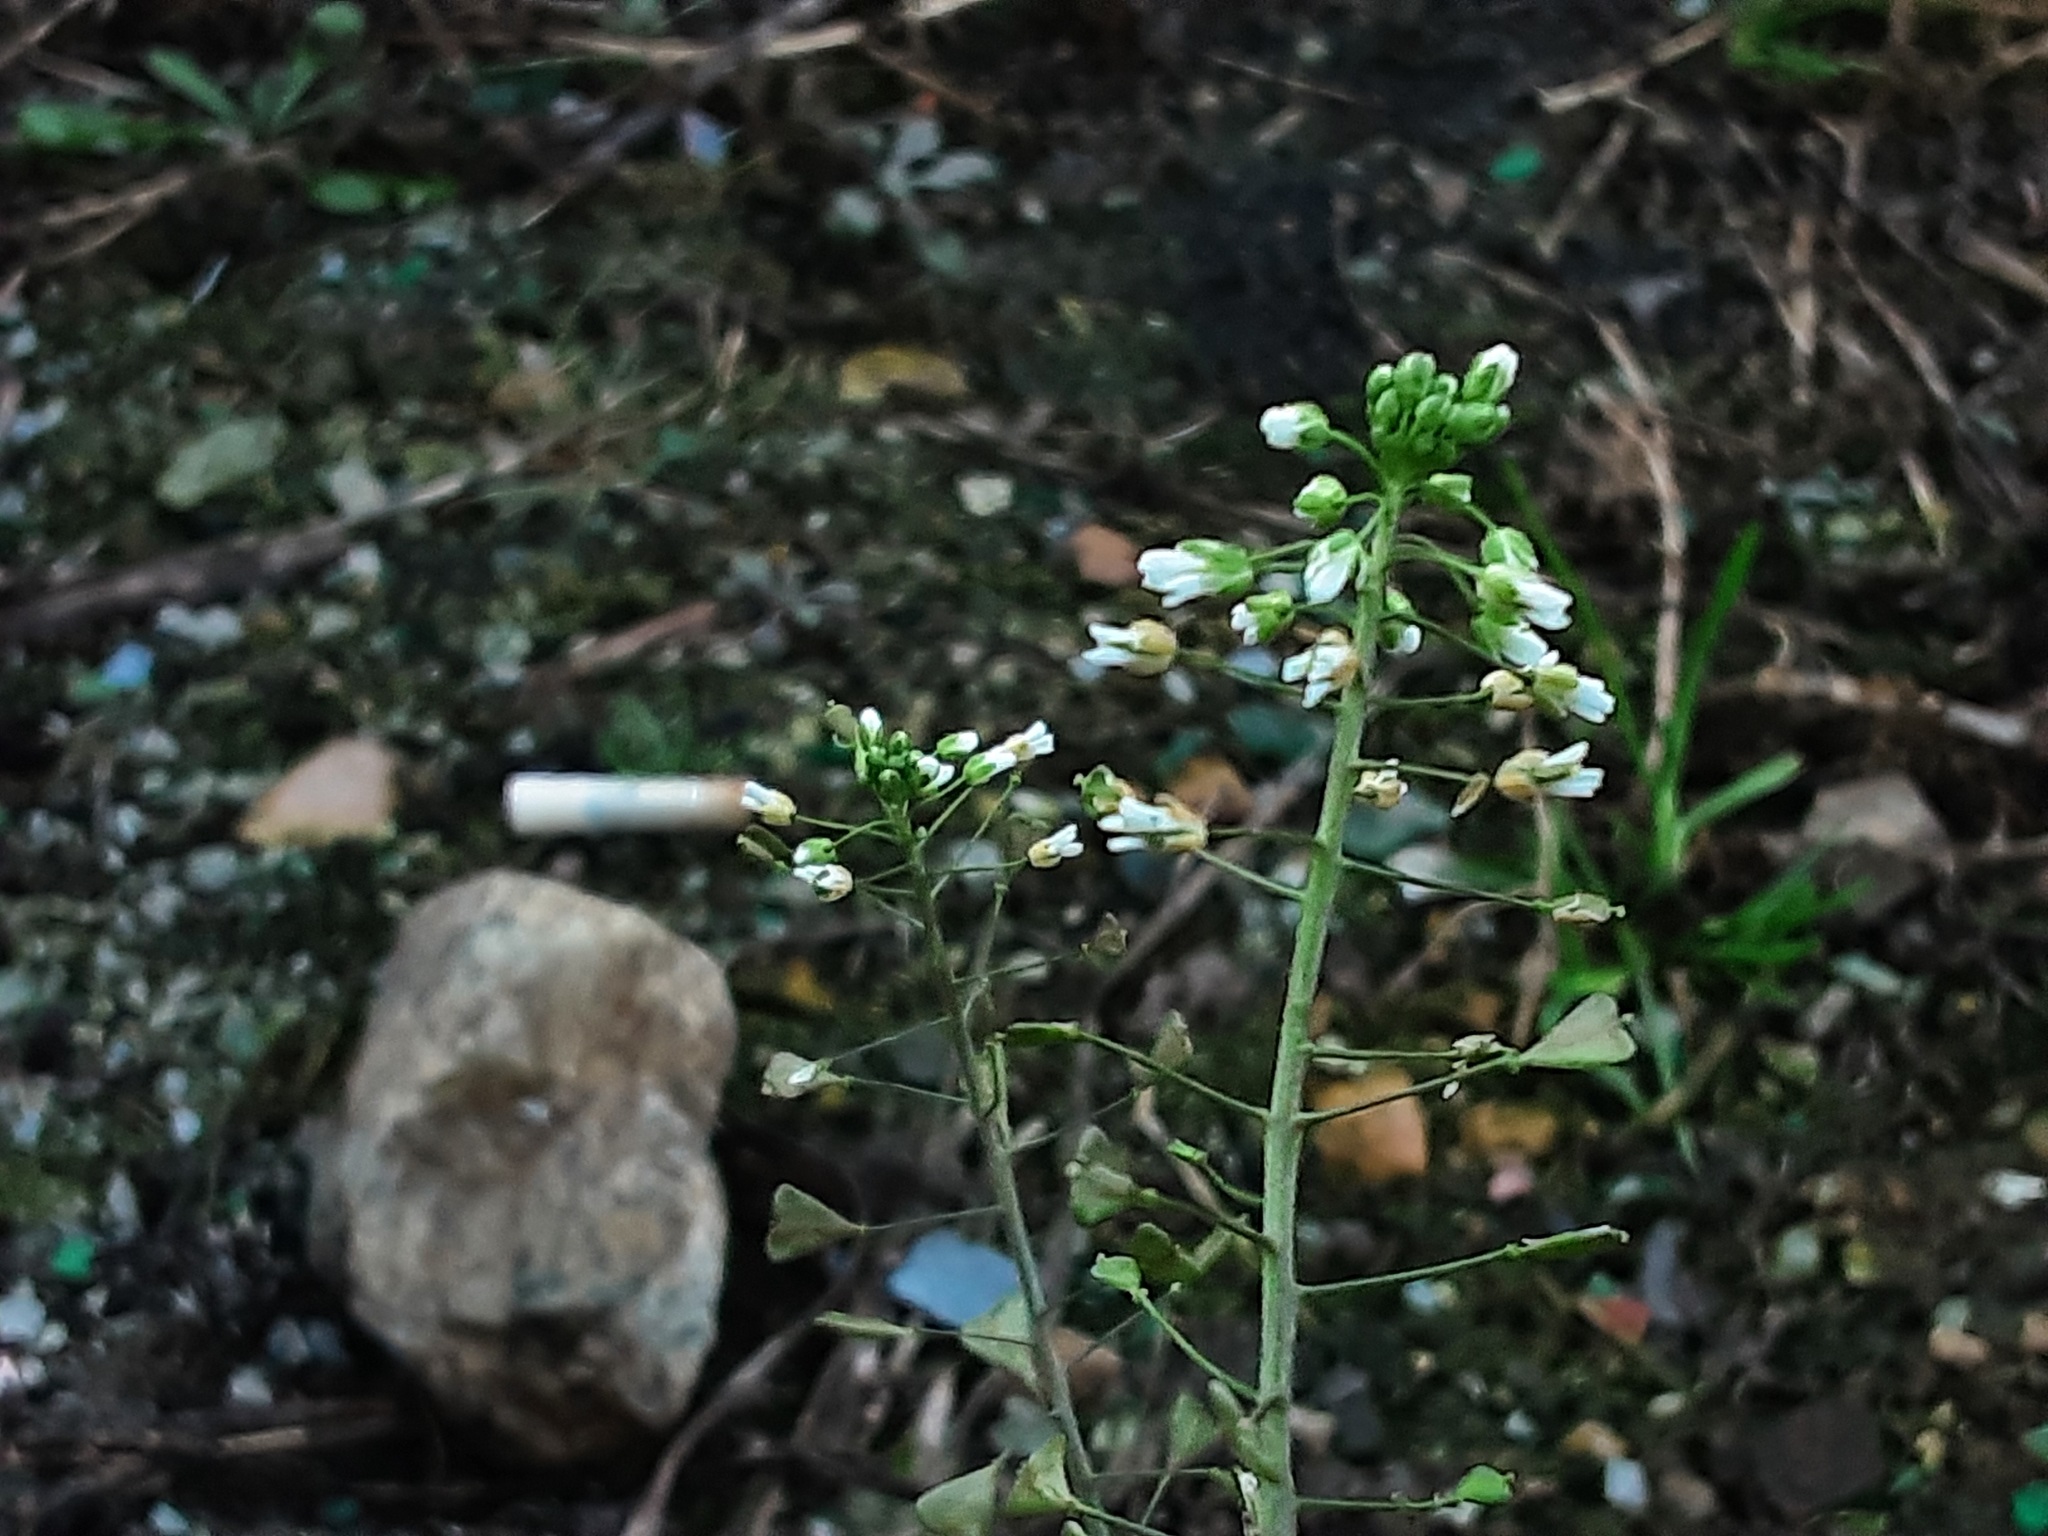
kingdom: Plantae
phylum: Tracheophyta
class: Magnoliopsida
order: Brassicales
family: Brassicaceae
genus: Capsella
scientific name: Capsella bursa-pastoris
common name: Shepherd's purse
